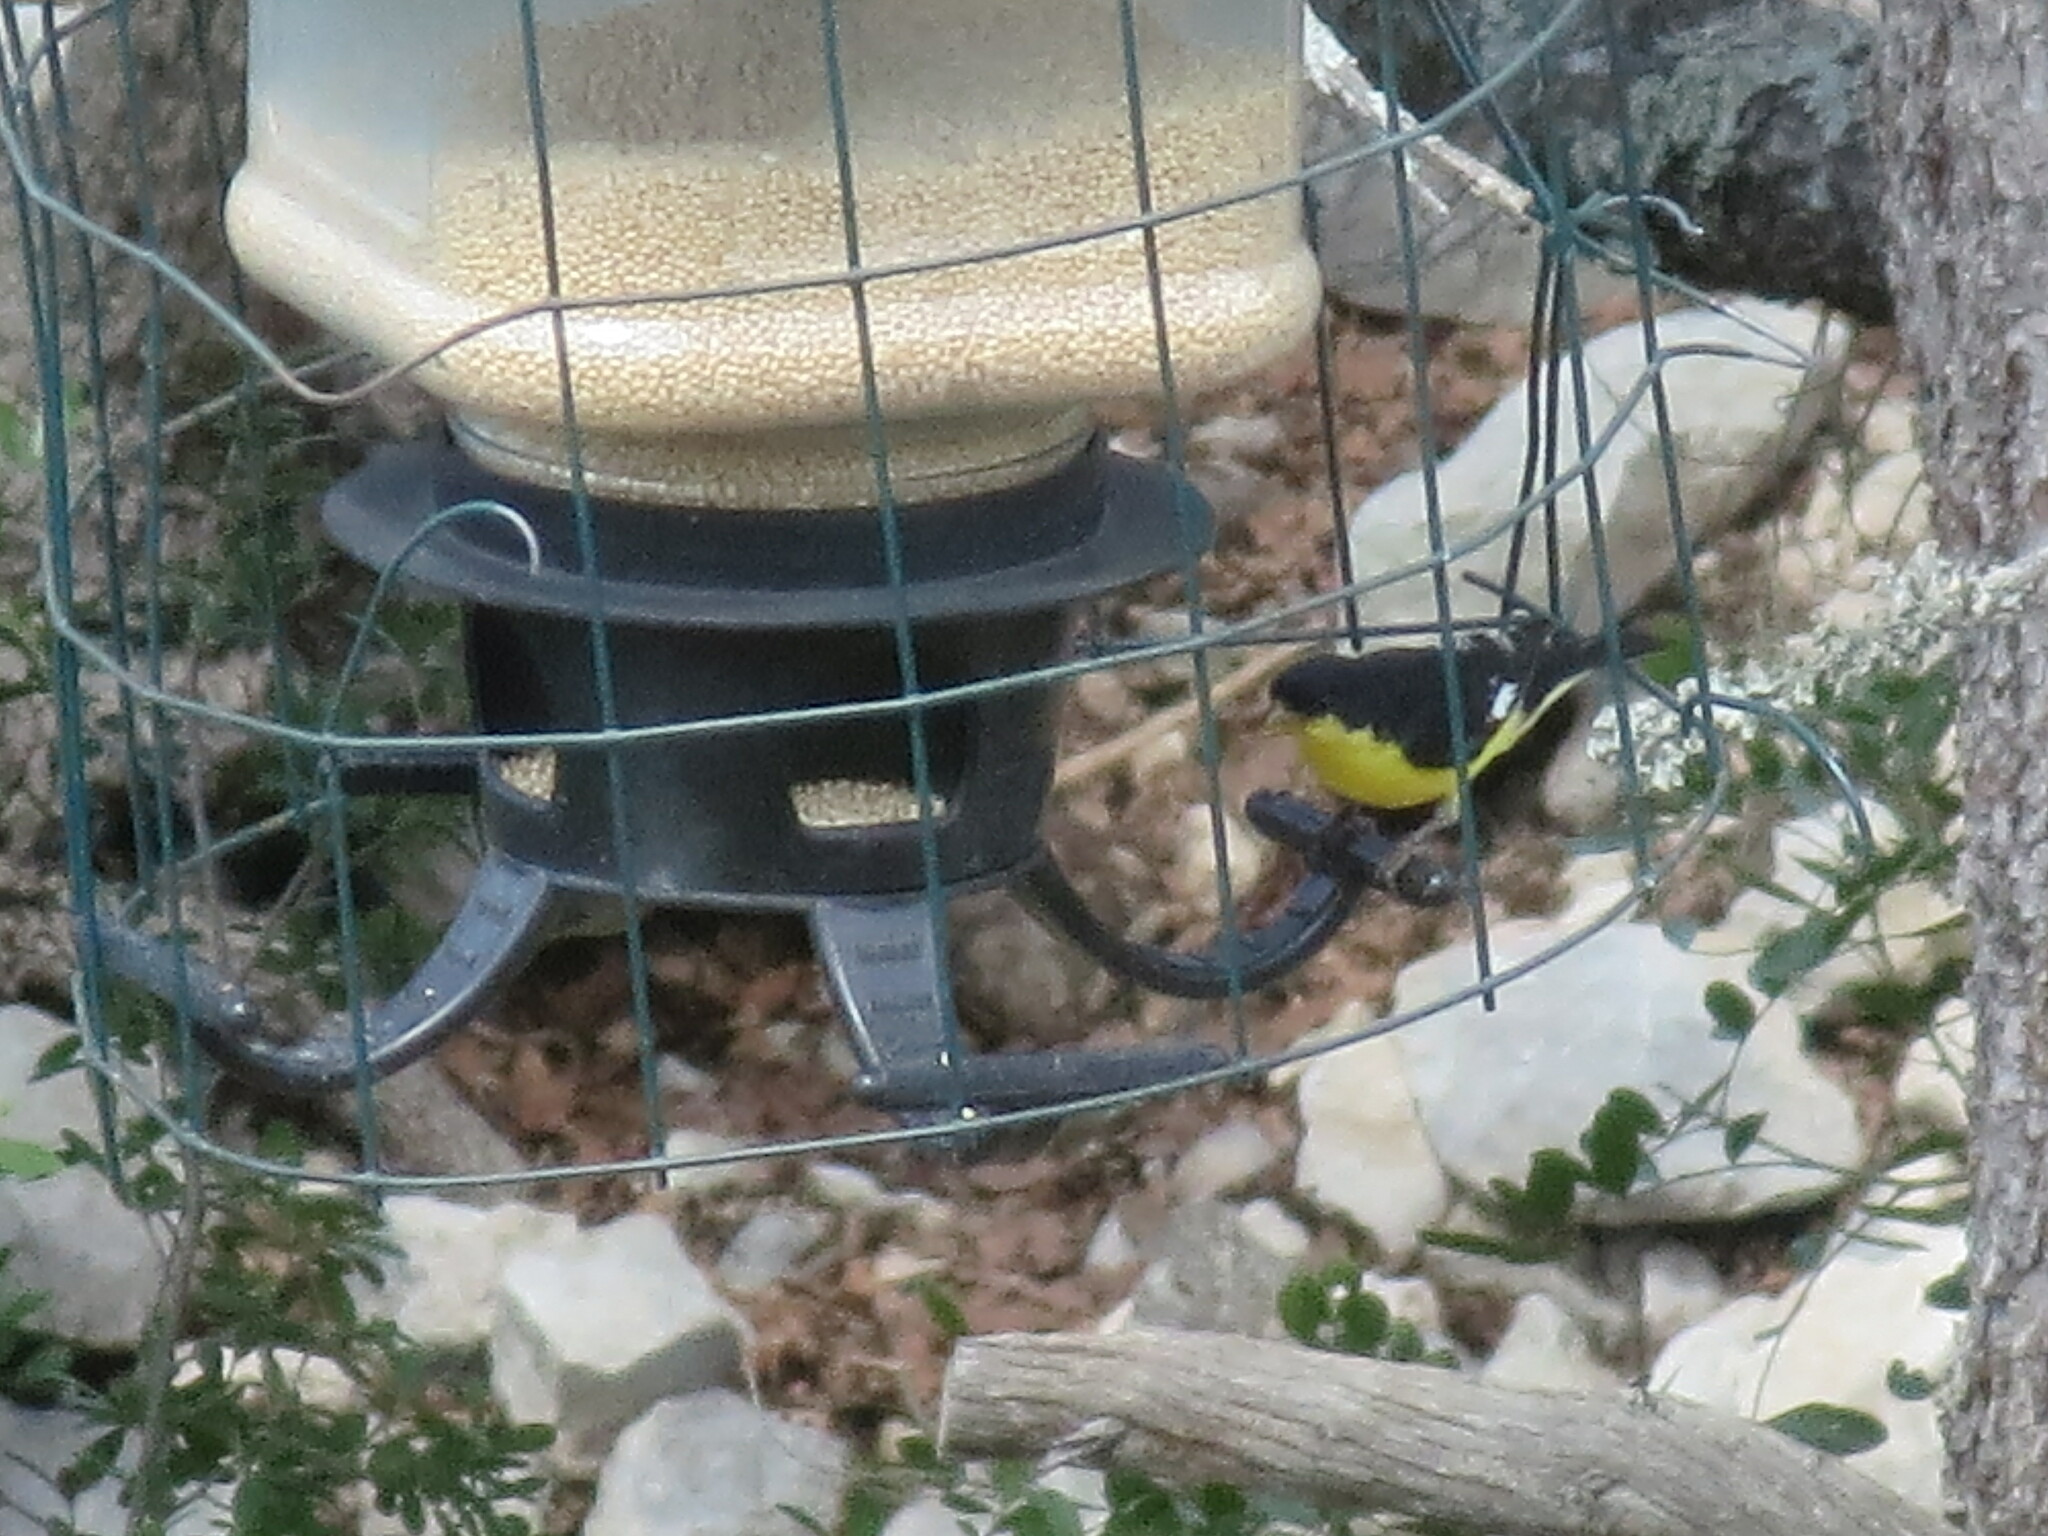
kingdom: Animalia
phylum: Chordata
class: Aves
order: Passeriformes
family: Fringillidae
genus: Spinus
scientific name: Spinus psaltria
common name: Lesser goldfinch
